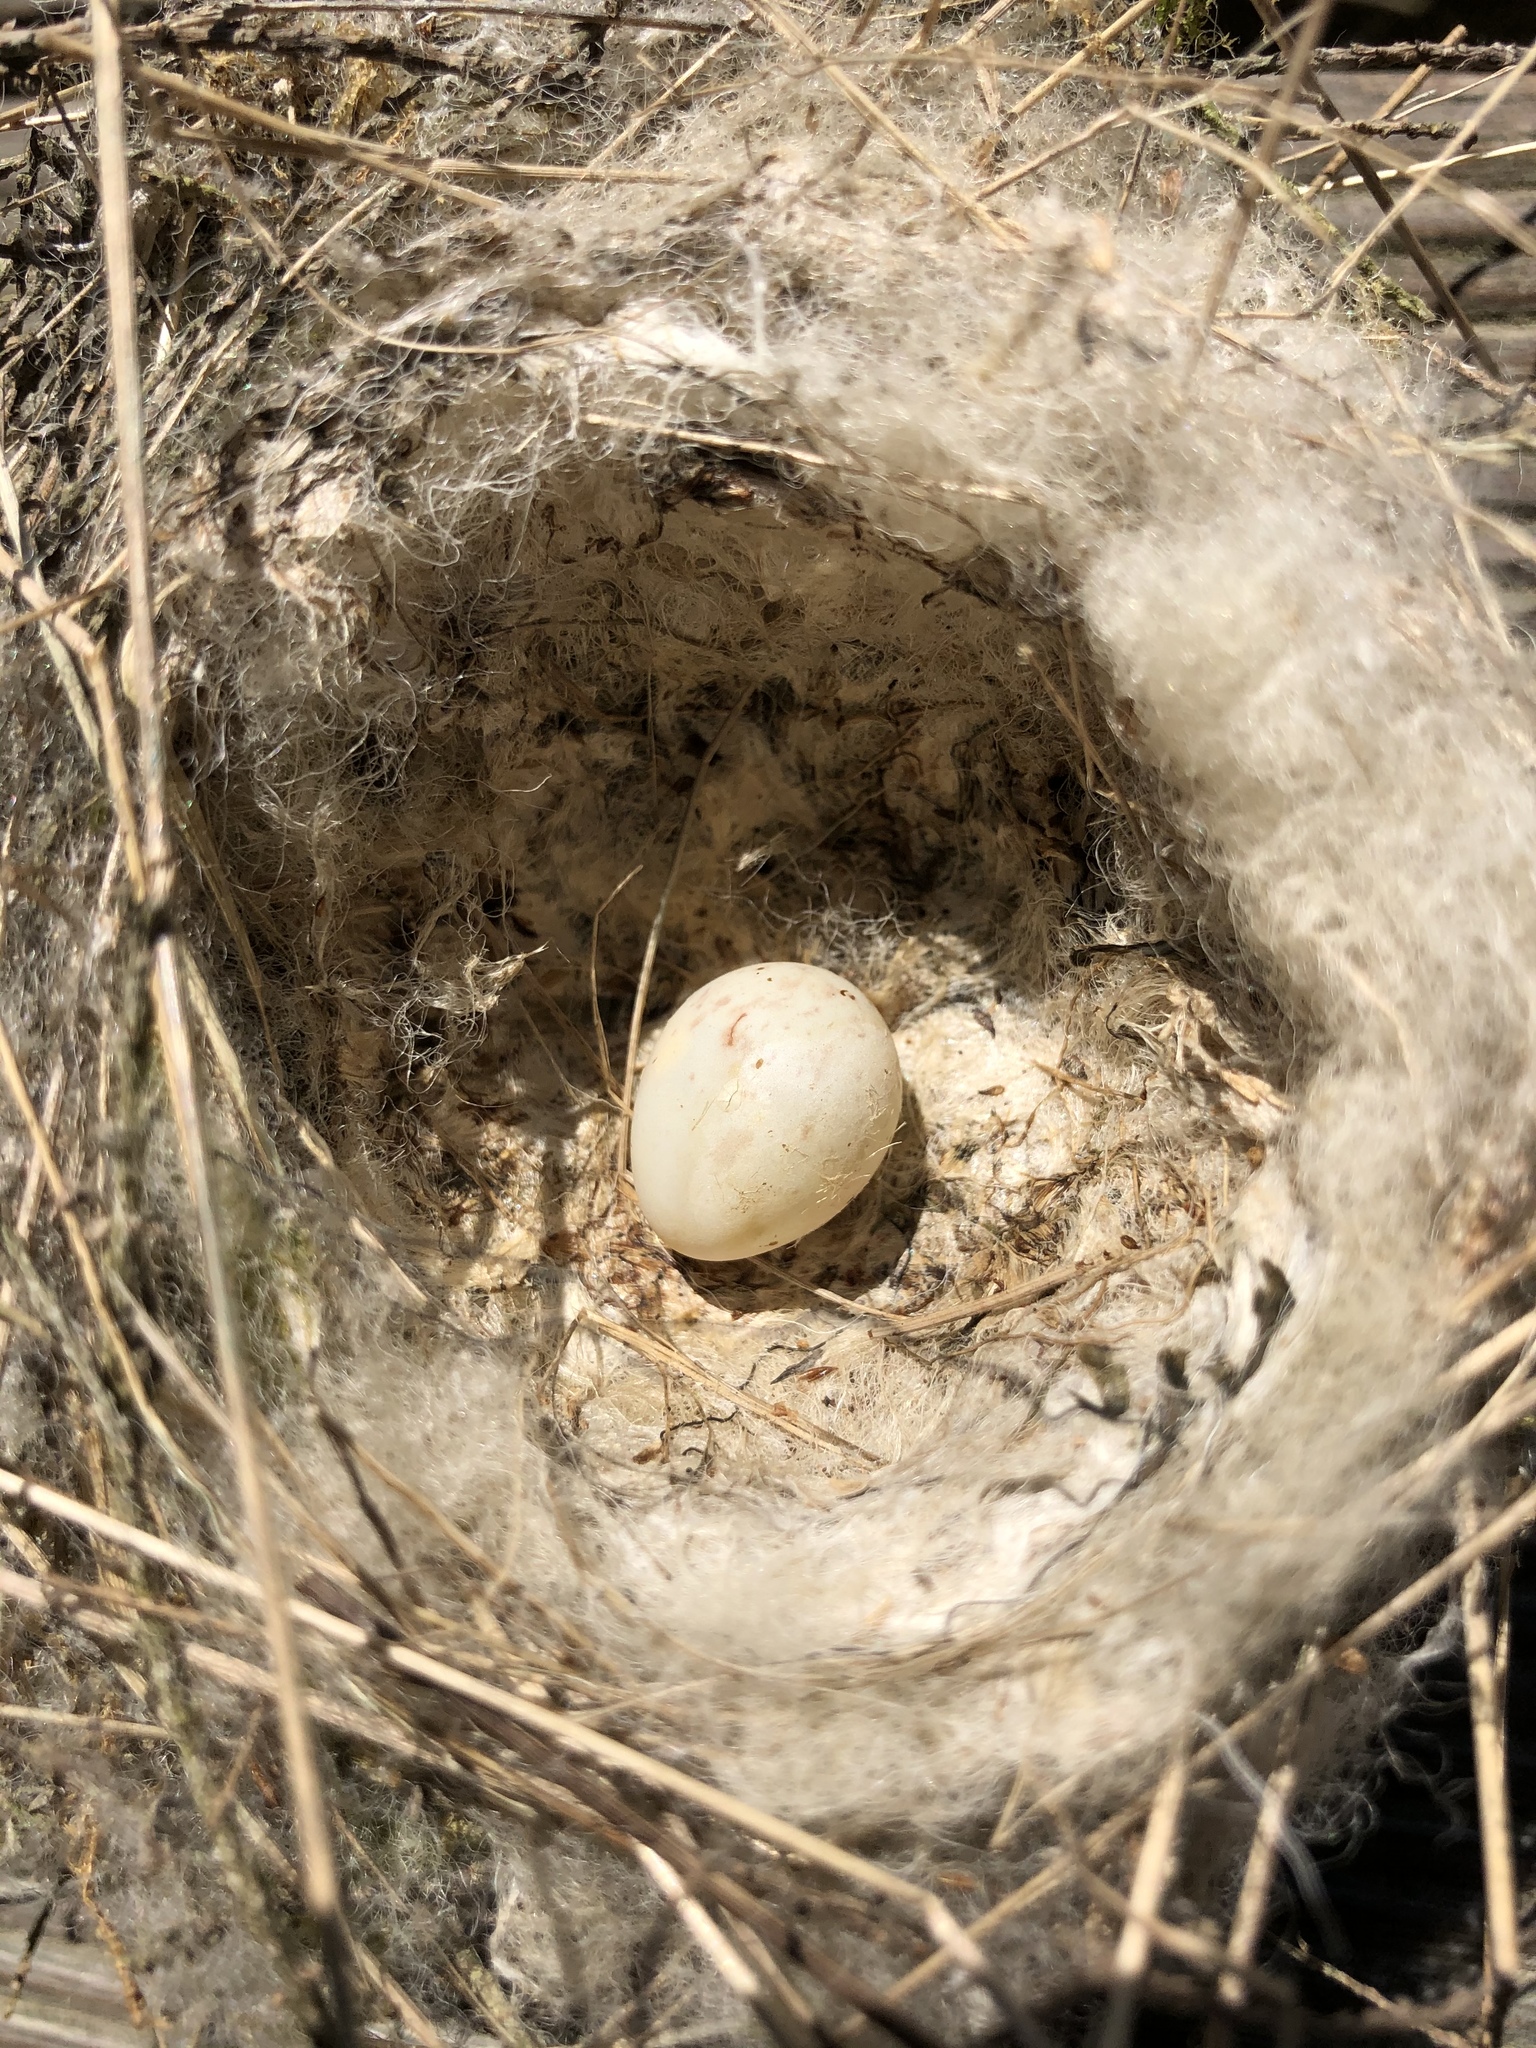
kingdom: Animalia
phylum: Chordata
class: Aves
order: Passeriformes
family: Fringillidae
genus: Carduelis
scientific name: Carduelis carduelis
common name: European goldfinch
